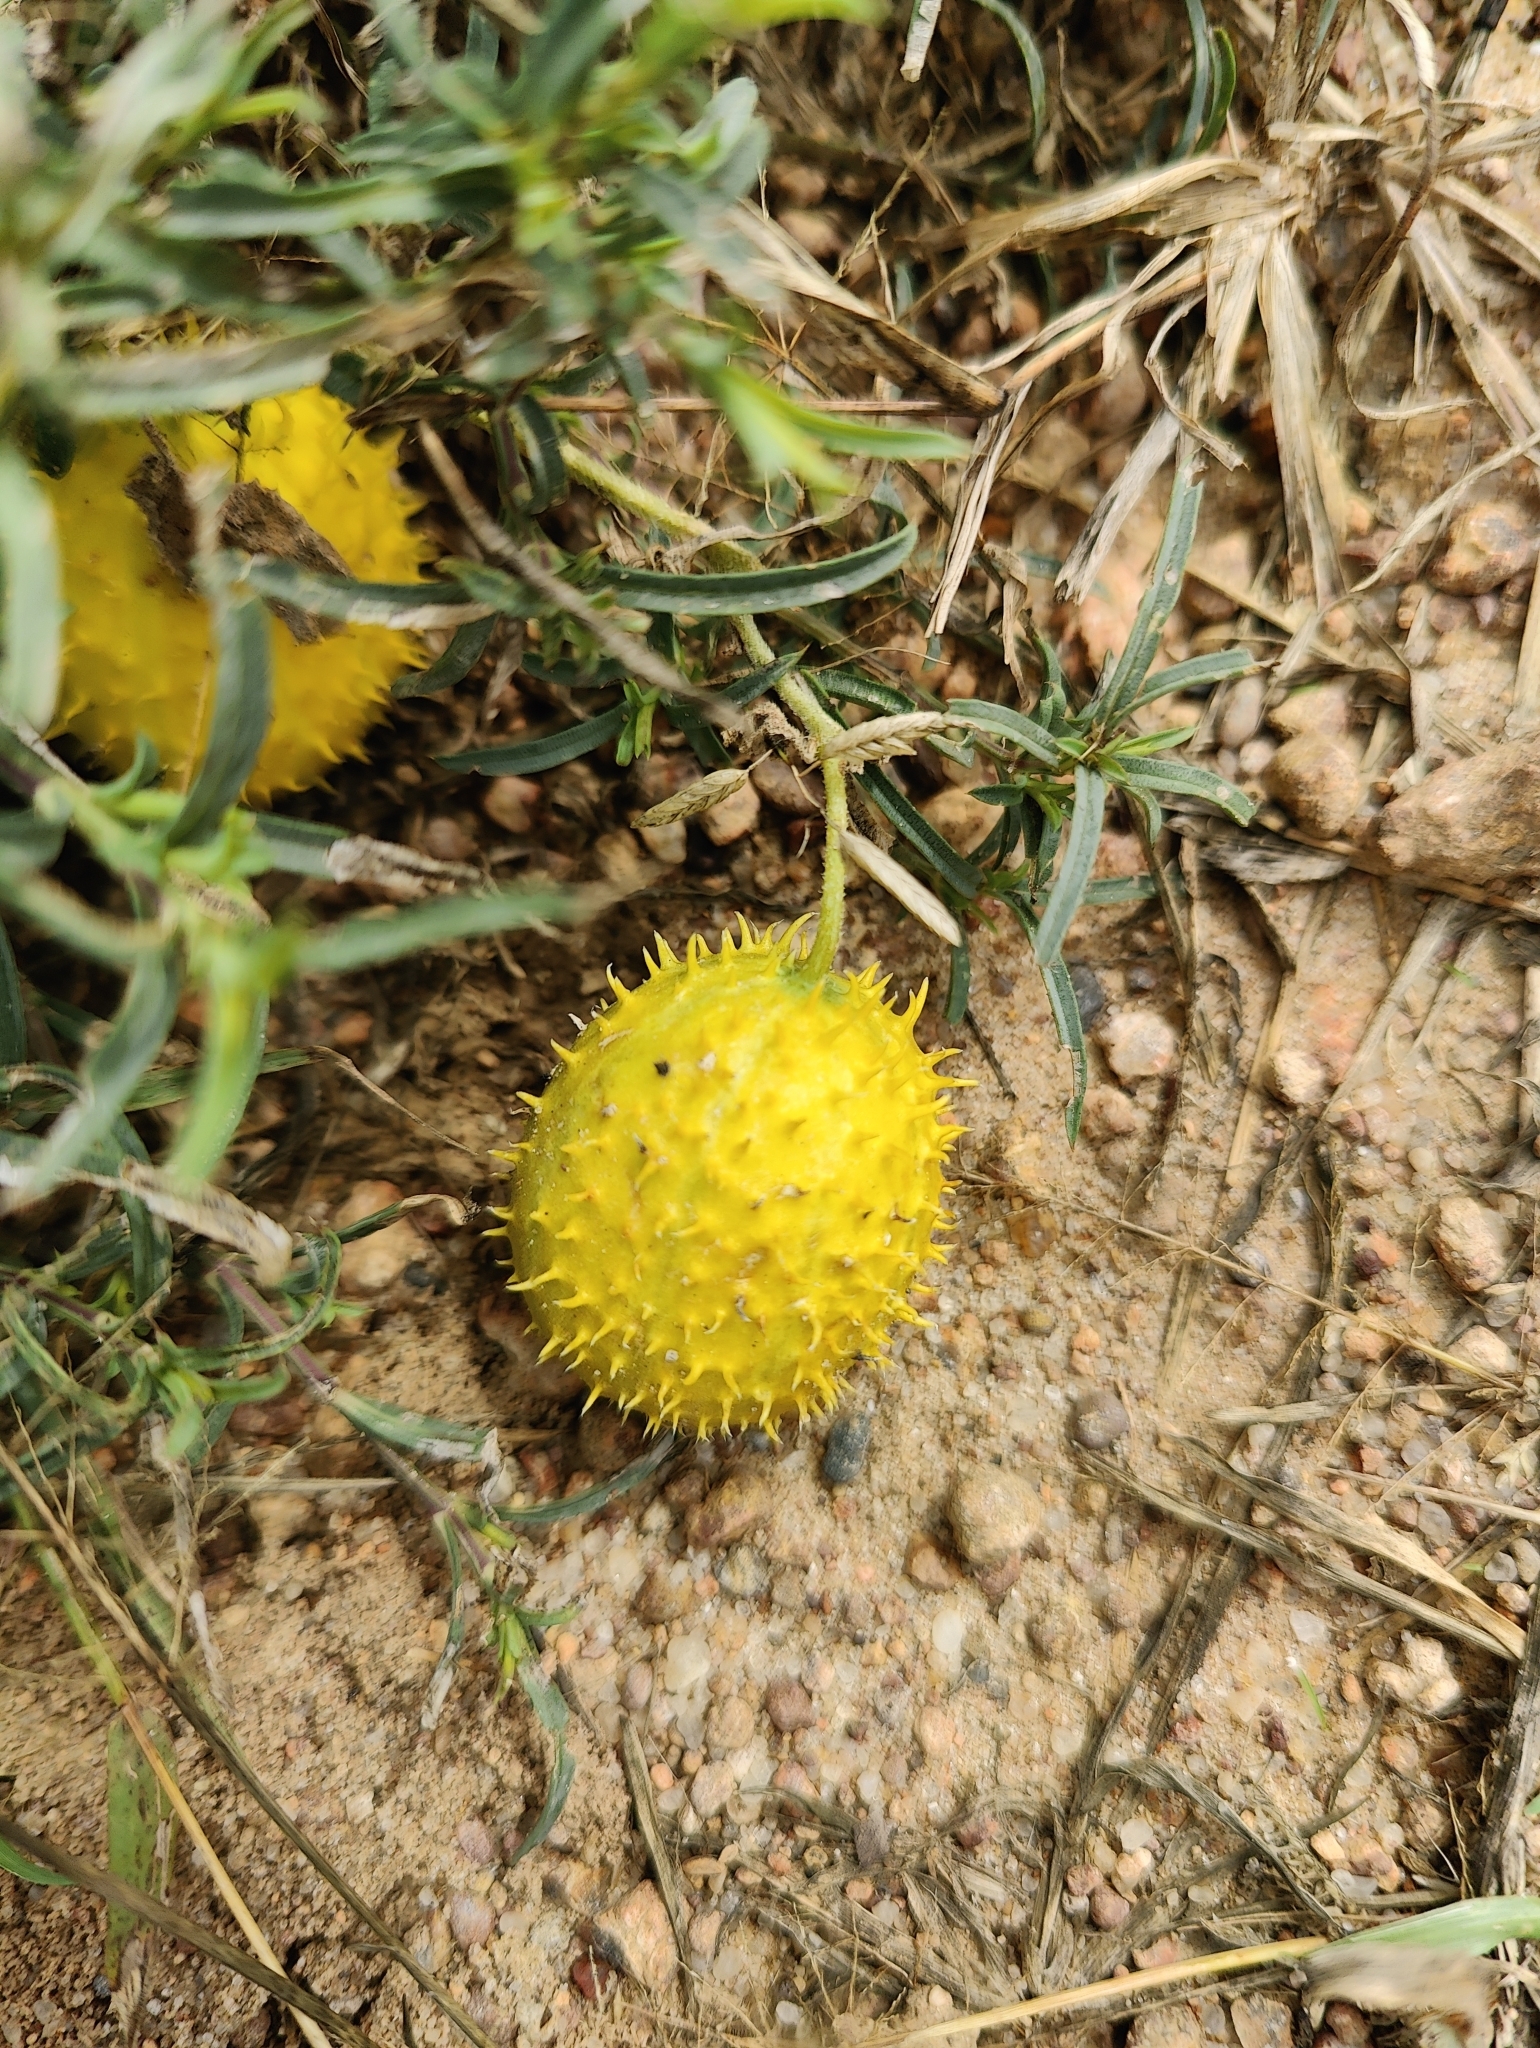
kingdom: Plantae
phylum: Tracheophyta
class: Magnoliopsida
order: Cucurbitales
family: Cucurbitaceae
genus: Citrullus
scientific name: Citrullus naudinianus
